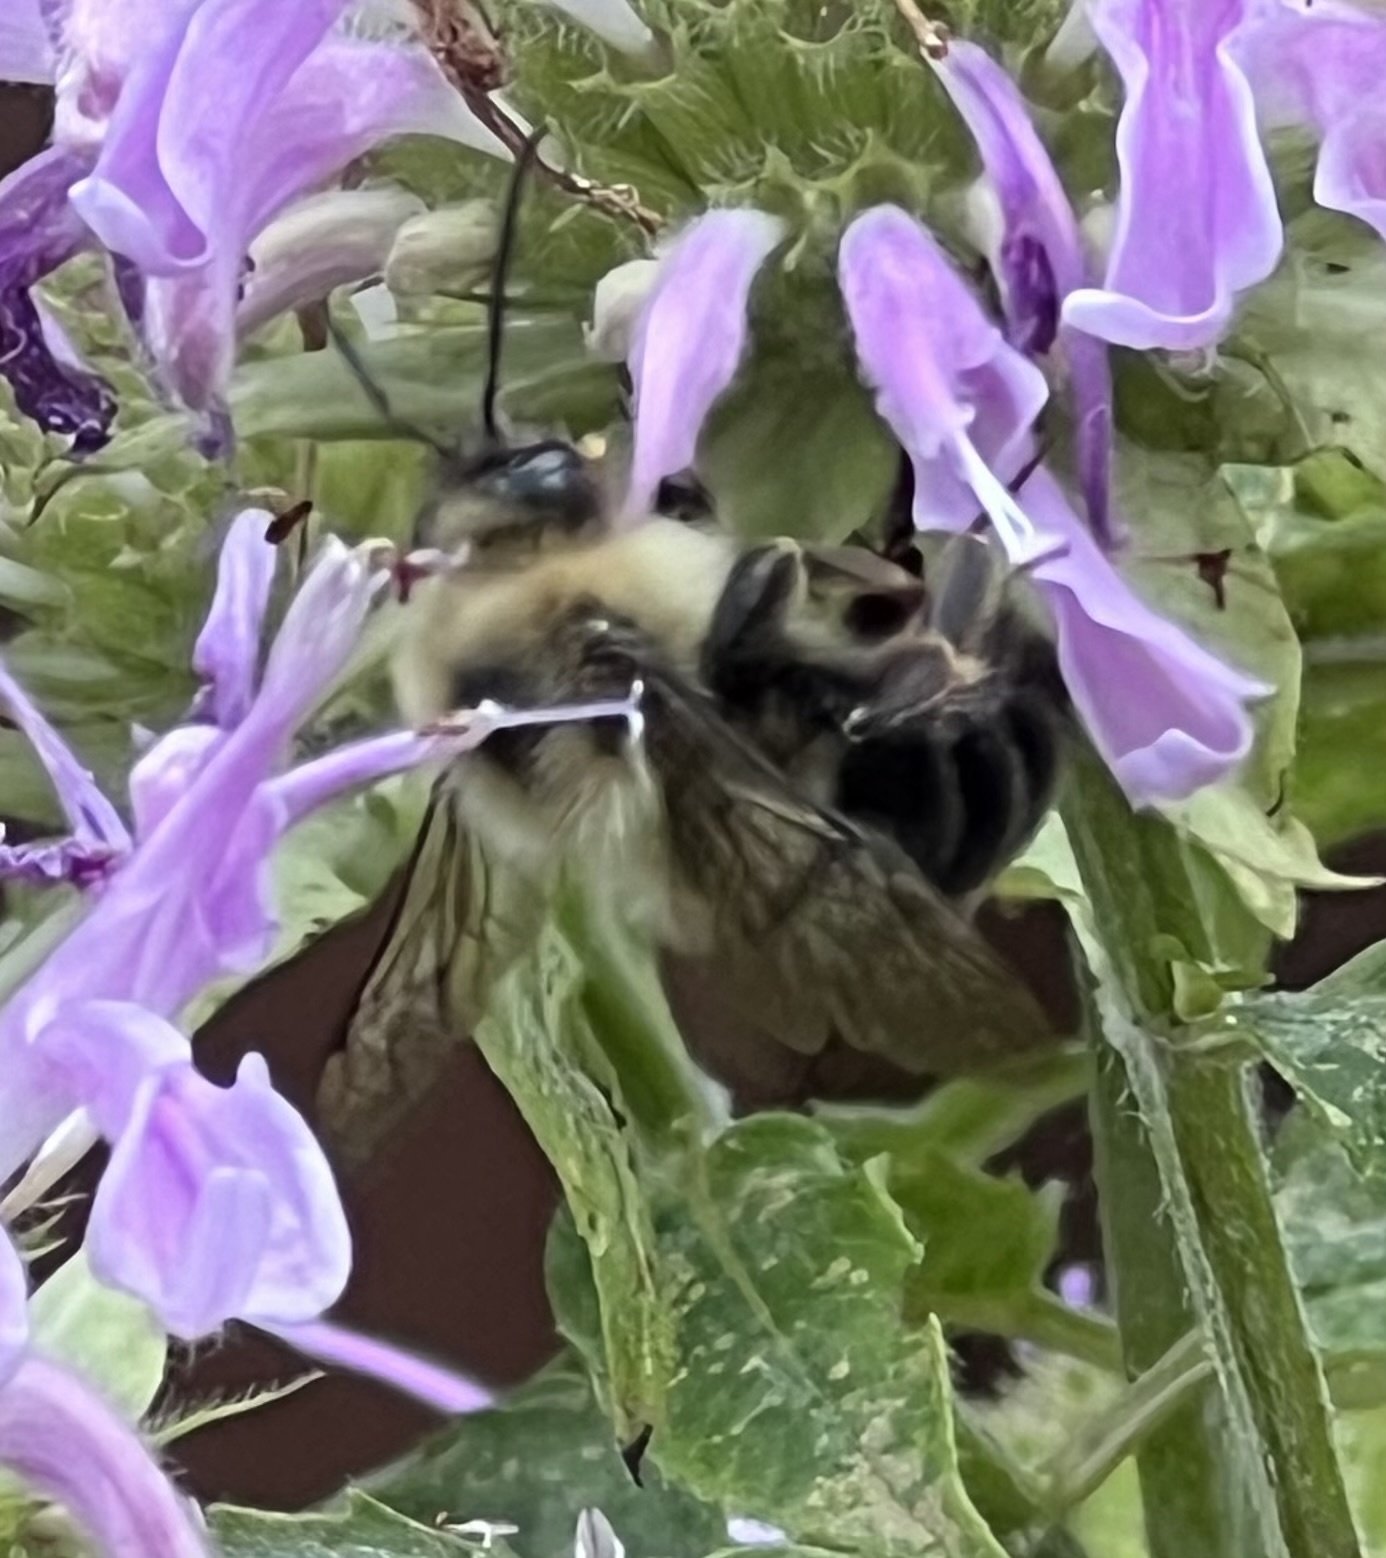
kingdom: Animalia
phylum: Arthropoda
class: Insecta
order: Hymenoptera
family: Apidae
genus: Bombus
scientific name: Bombus bimaculatus
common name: Two-spotted bumble bee
